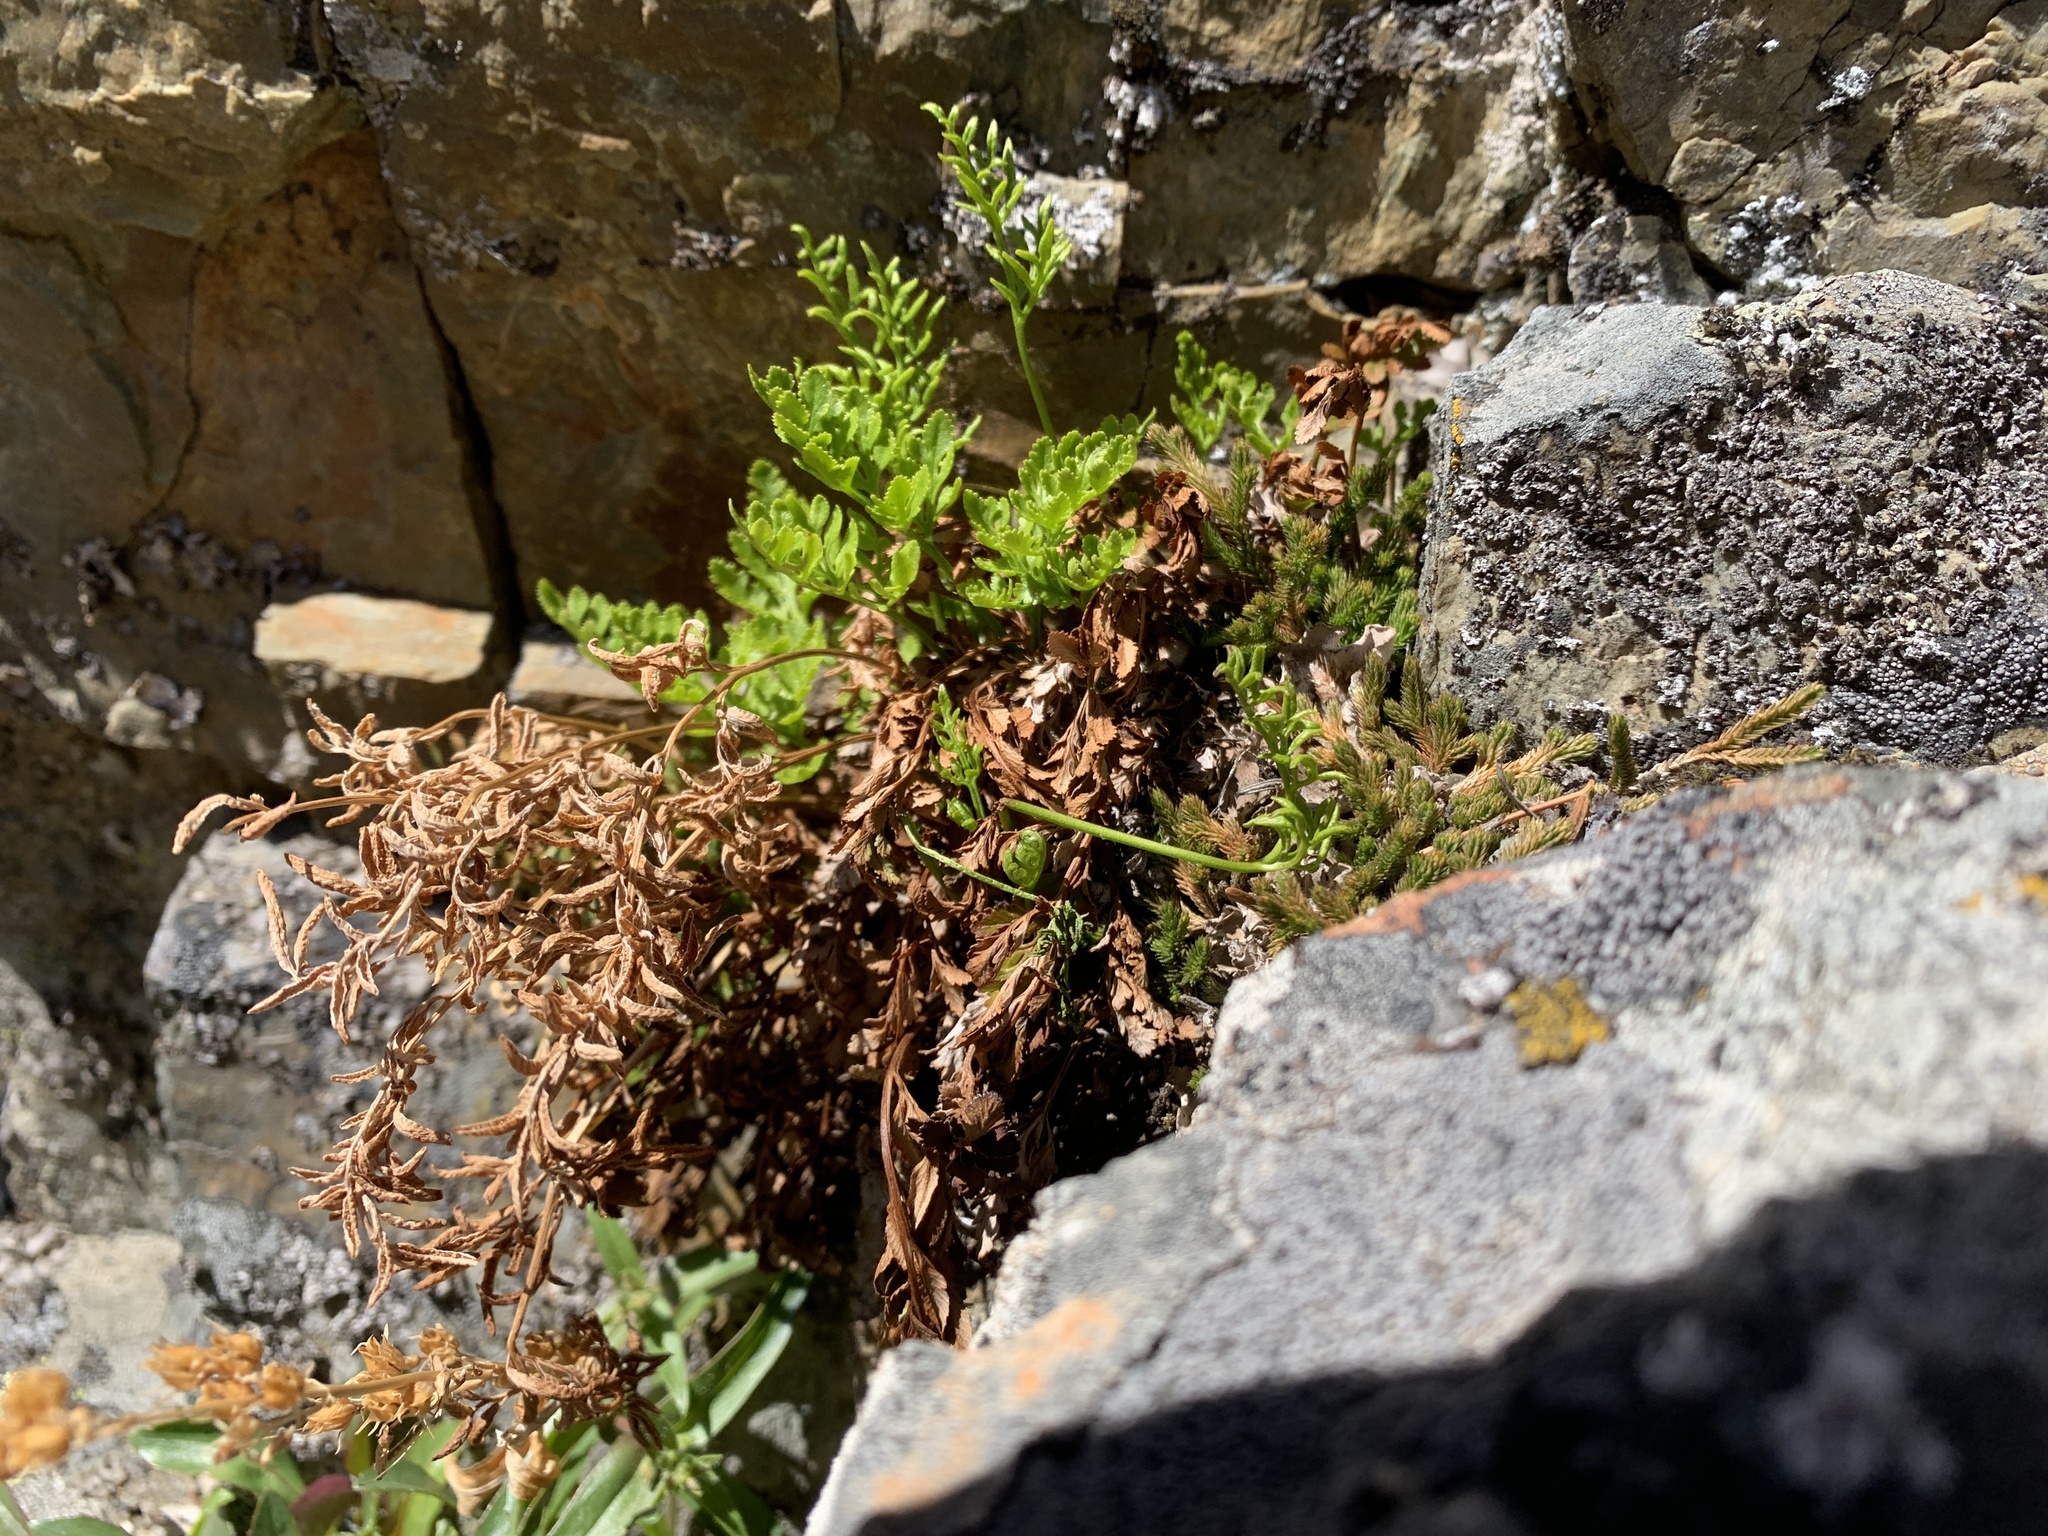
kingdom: Plantae
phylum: Tracheophyta
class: Polypodiopsida
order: Polypodiales
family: Pteridaceae
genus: Cryptogramma
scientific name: Cryptogramma acrostichoides
